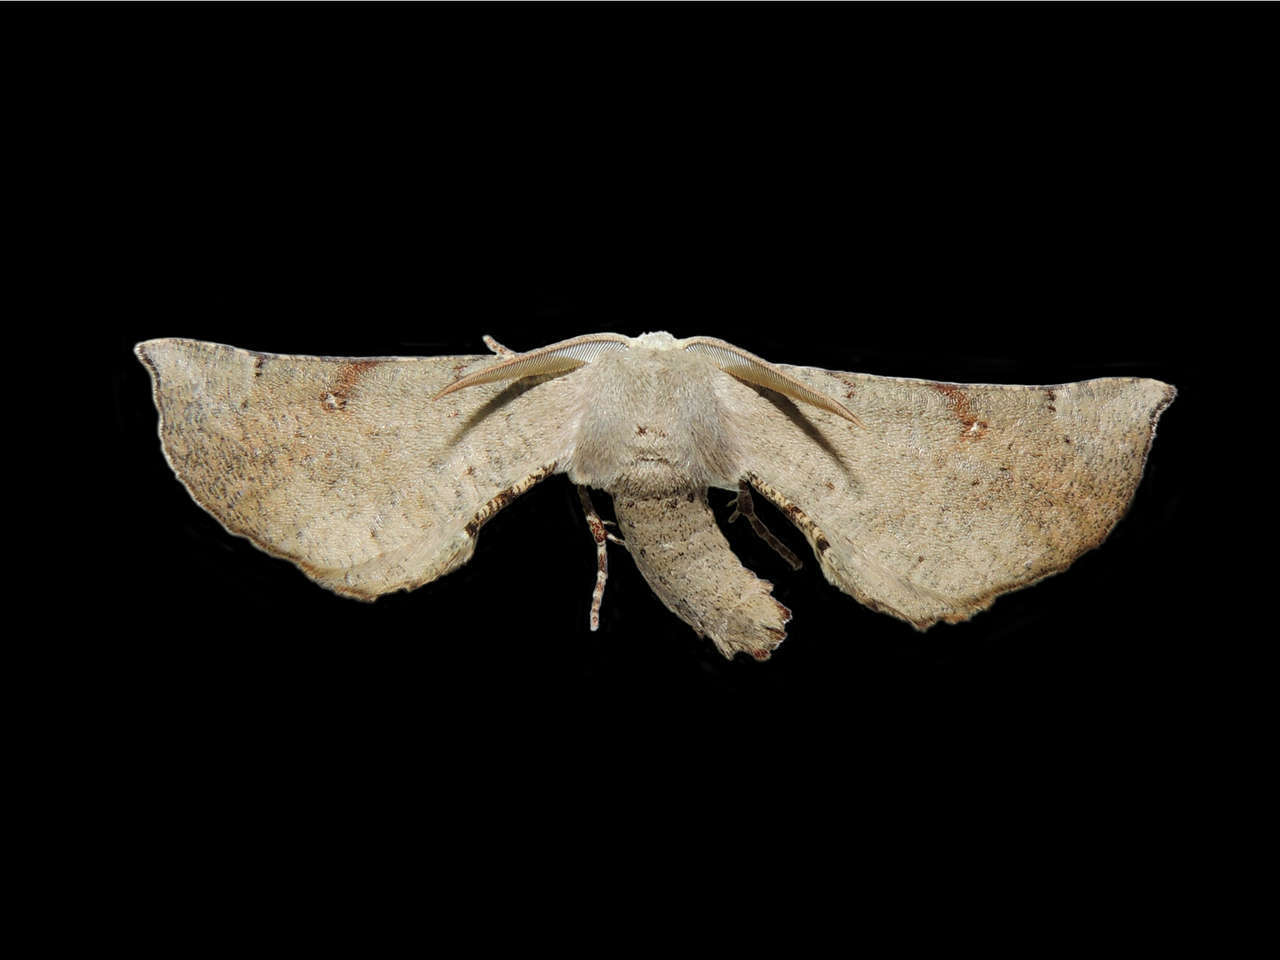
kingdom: Animalia
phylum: Arthropoda
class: Insecta
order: Lepidoptera
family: Geometridae
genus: Circopetes
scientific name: Circopetes obtusata
